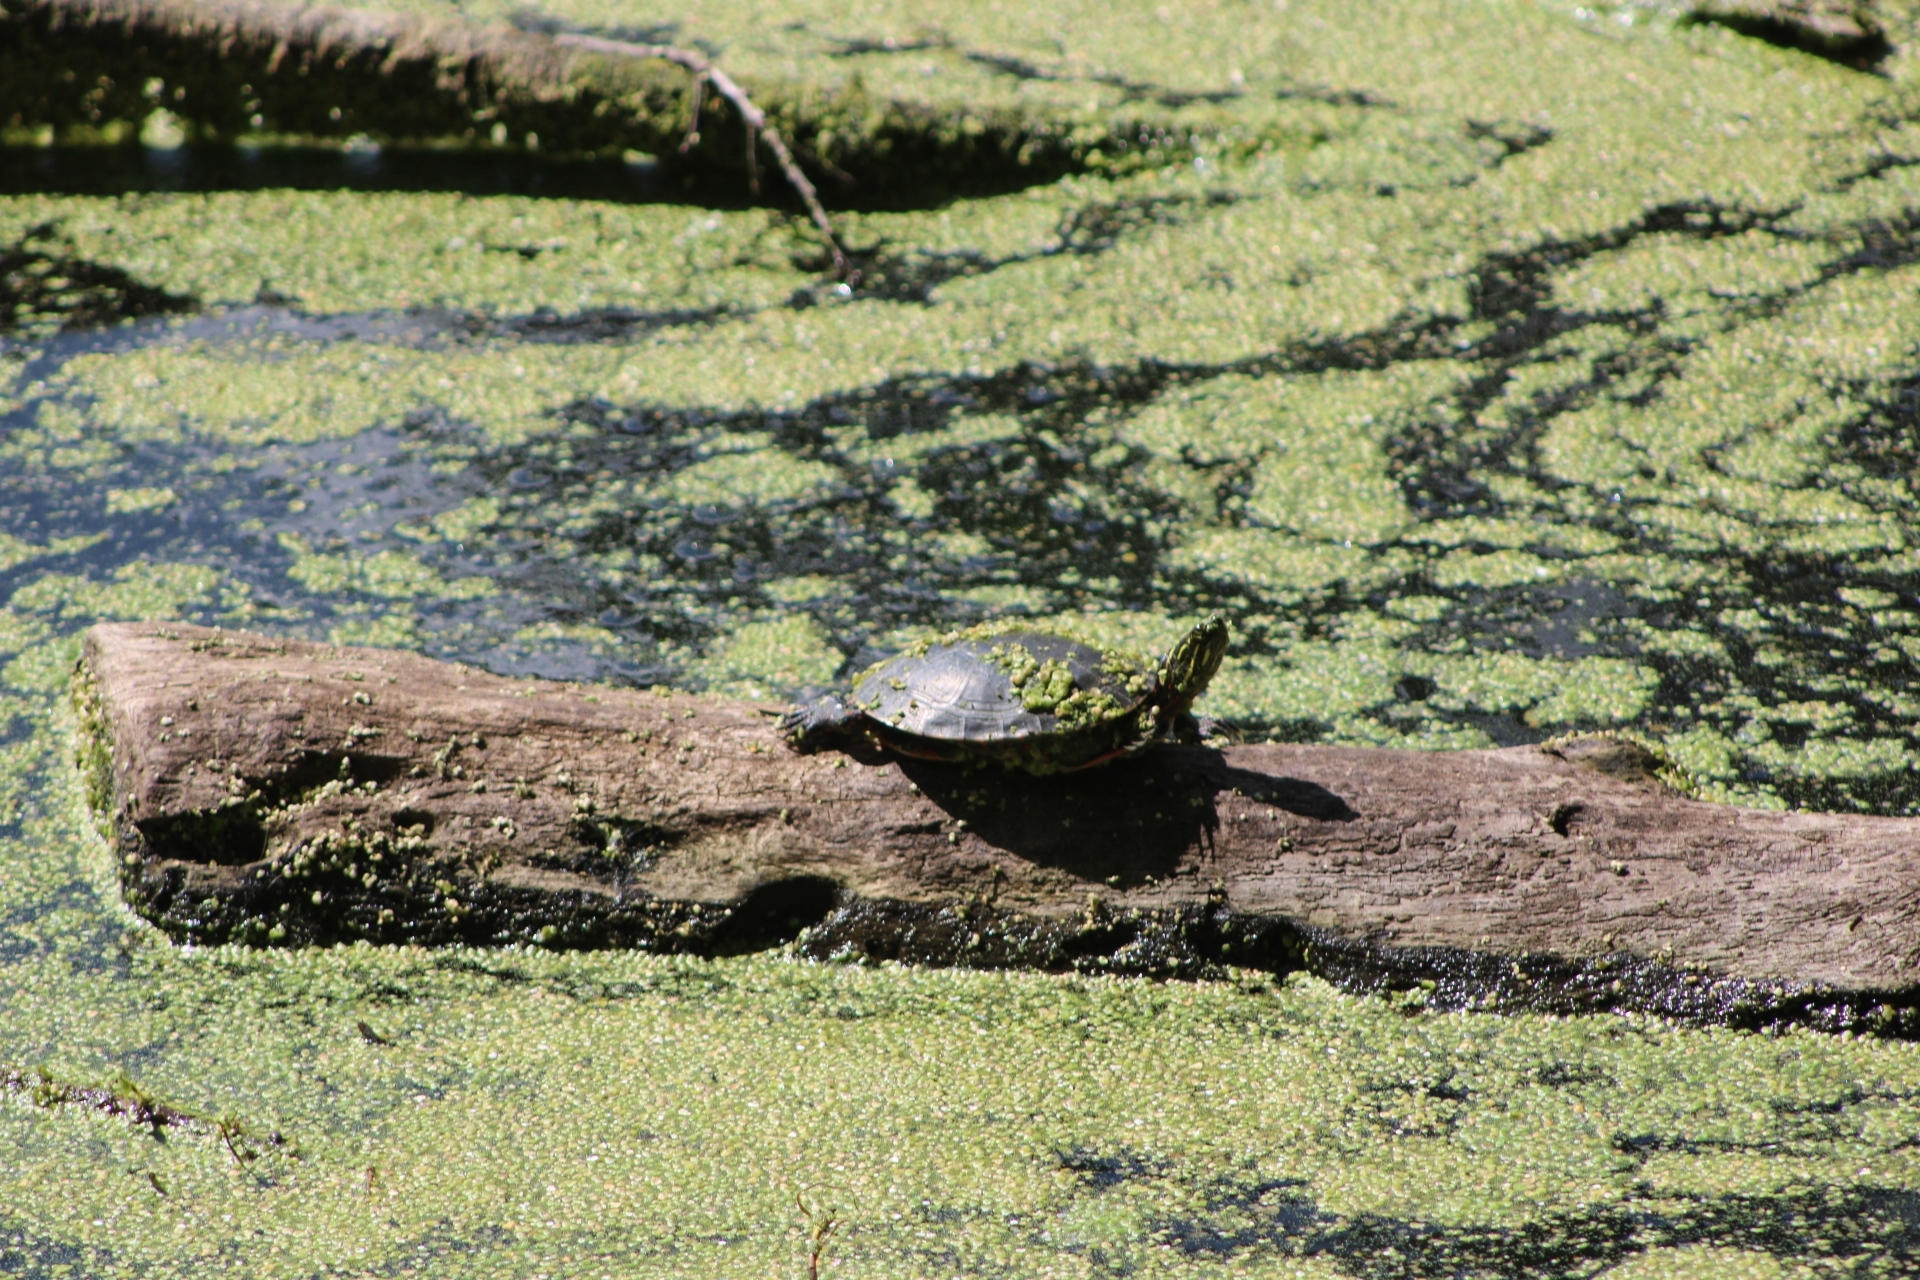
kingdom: Animalia
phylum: Chordata
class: Testudines
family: Emydidae
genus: Chrysemys
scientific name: Chrysemys picta
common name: Painted turtle
